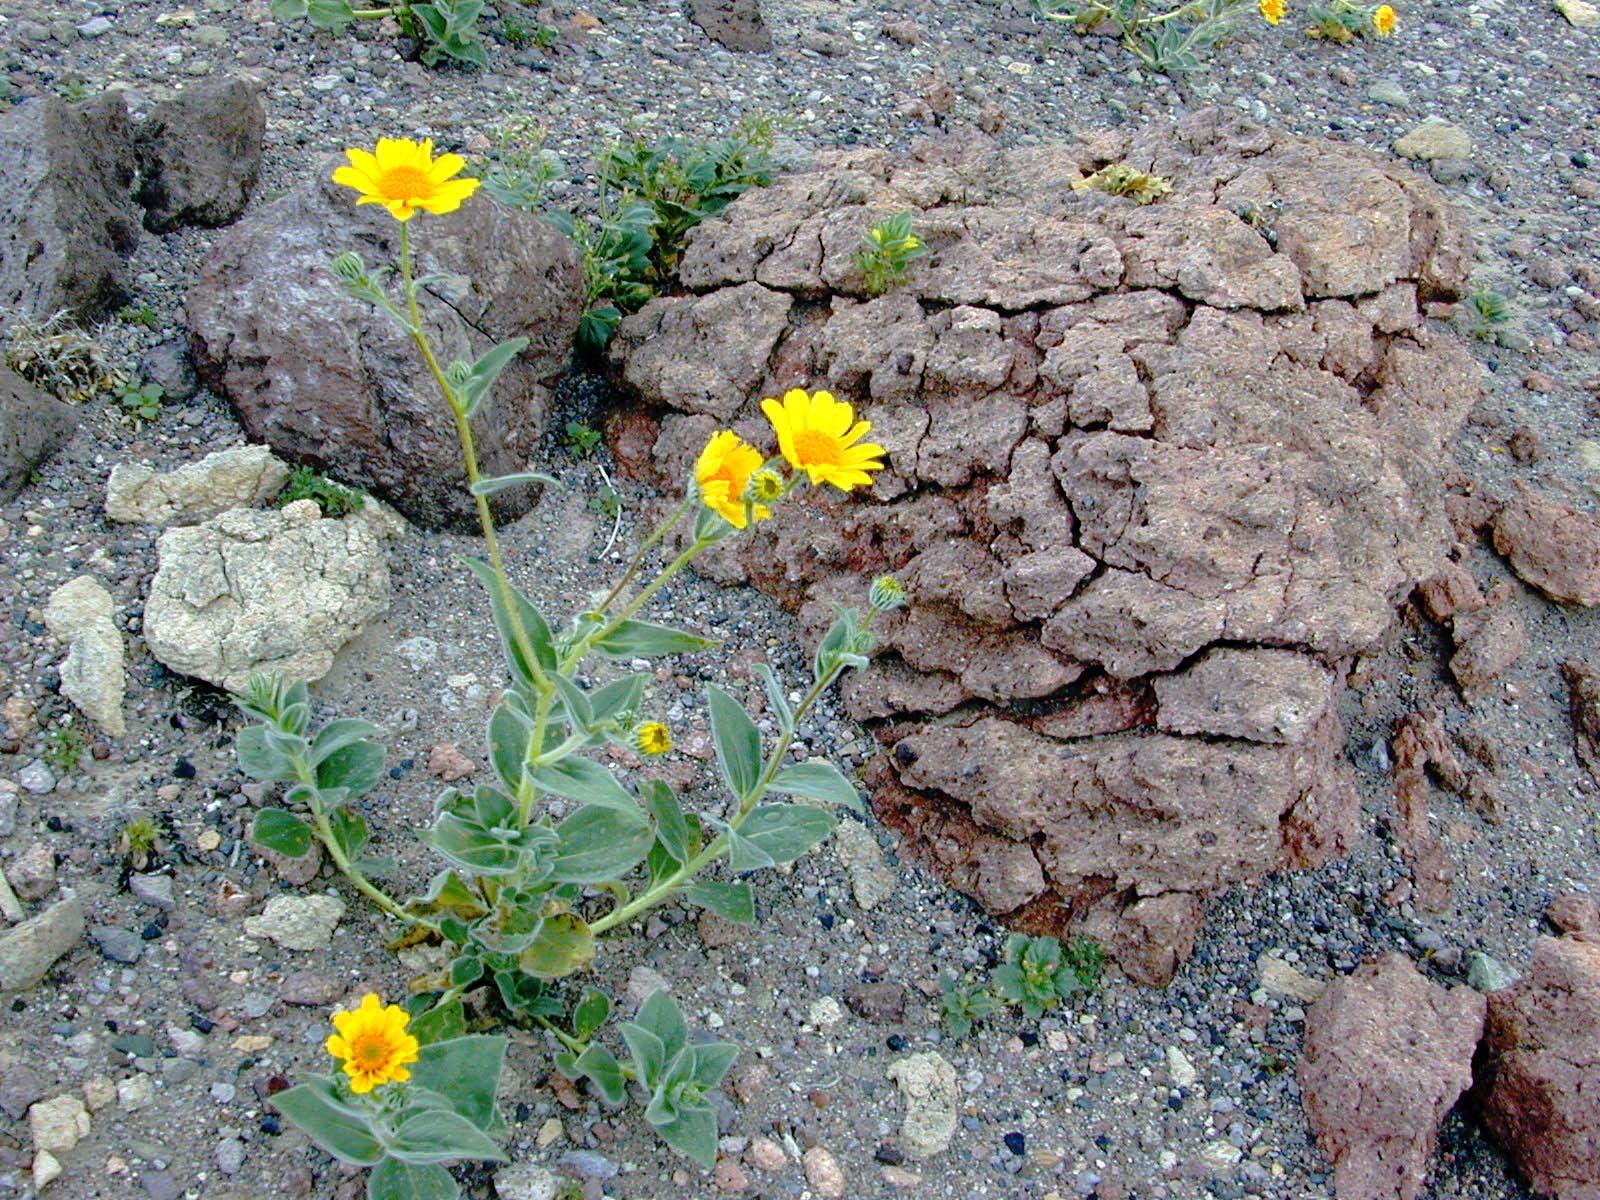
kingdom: Plantae
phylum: Tracheophyta
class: Magnoliopsida
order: Asterales
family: Asteraceae
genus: Geraea
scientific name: Geraea canescens
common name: Desert-gold
